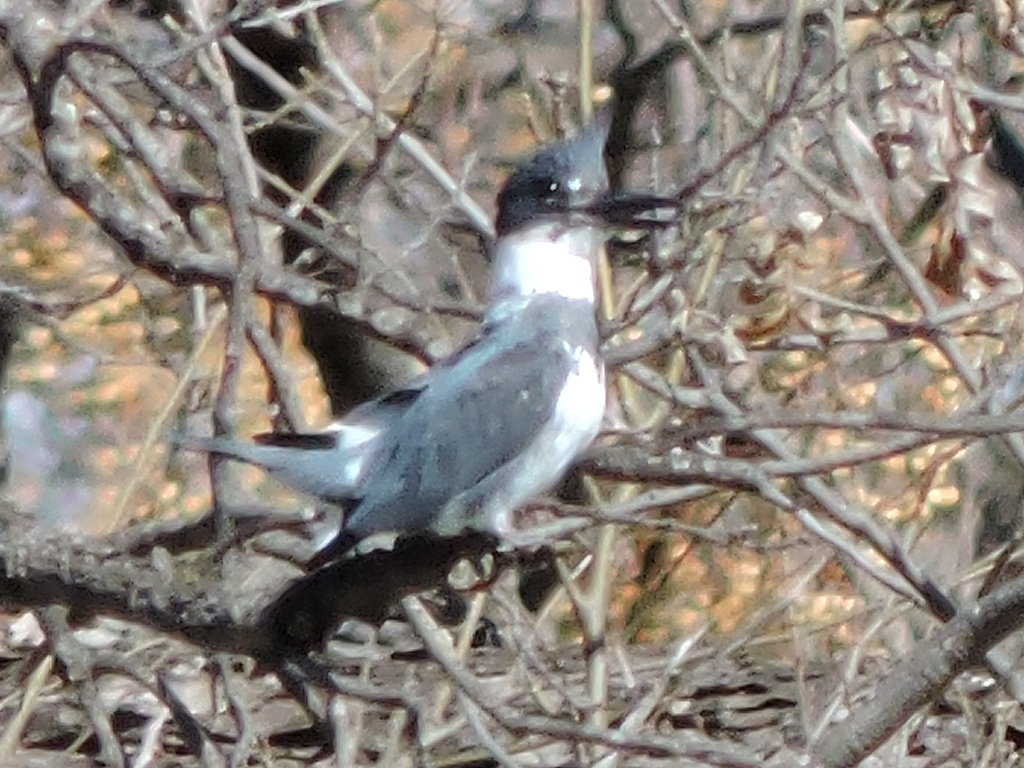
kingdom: Animalia
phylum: Chordata
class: Aves
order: Coraciiformes
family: Alcedinidae
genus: Megaceryle
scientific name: Megaceryle alcyon
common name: Belted kingfisher
